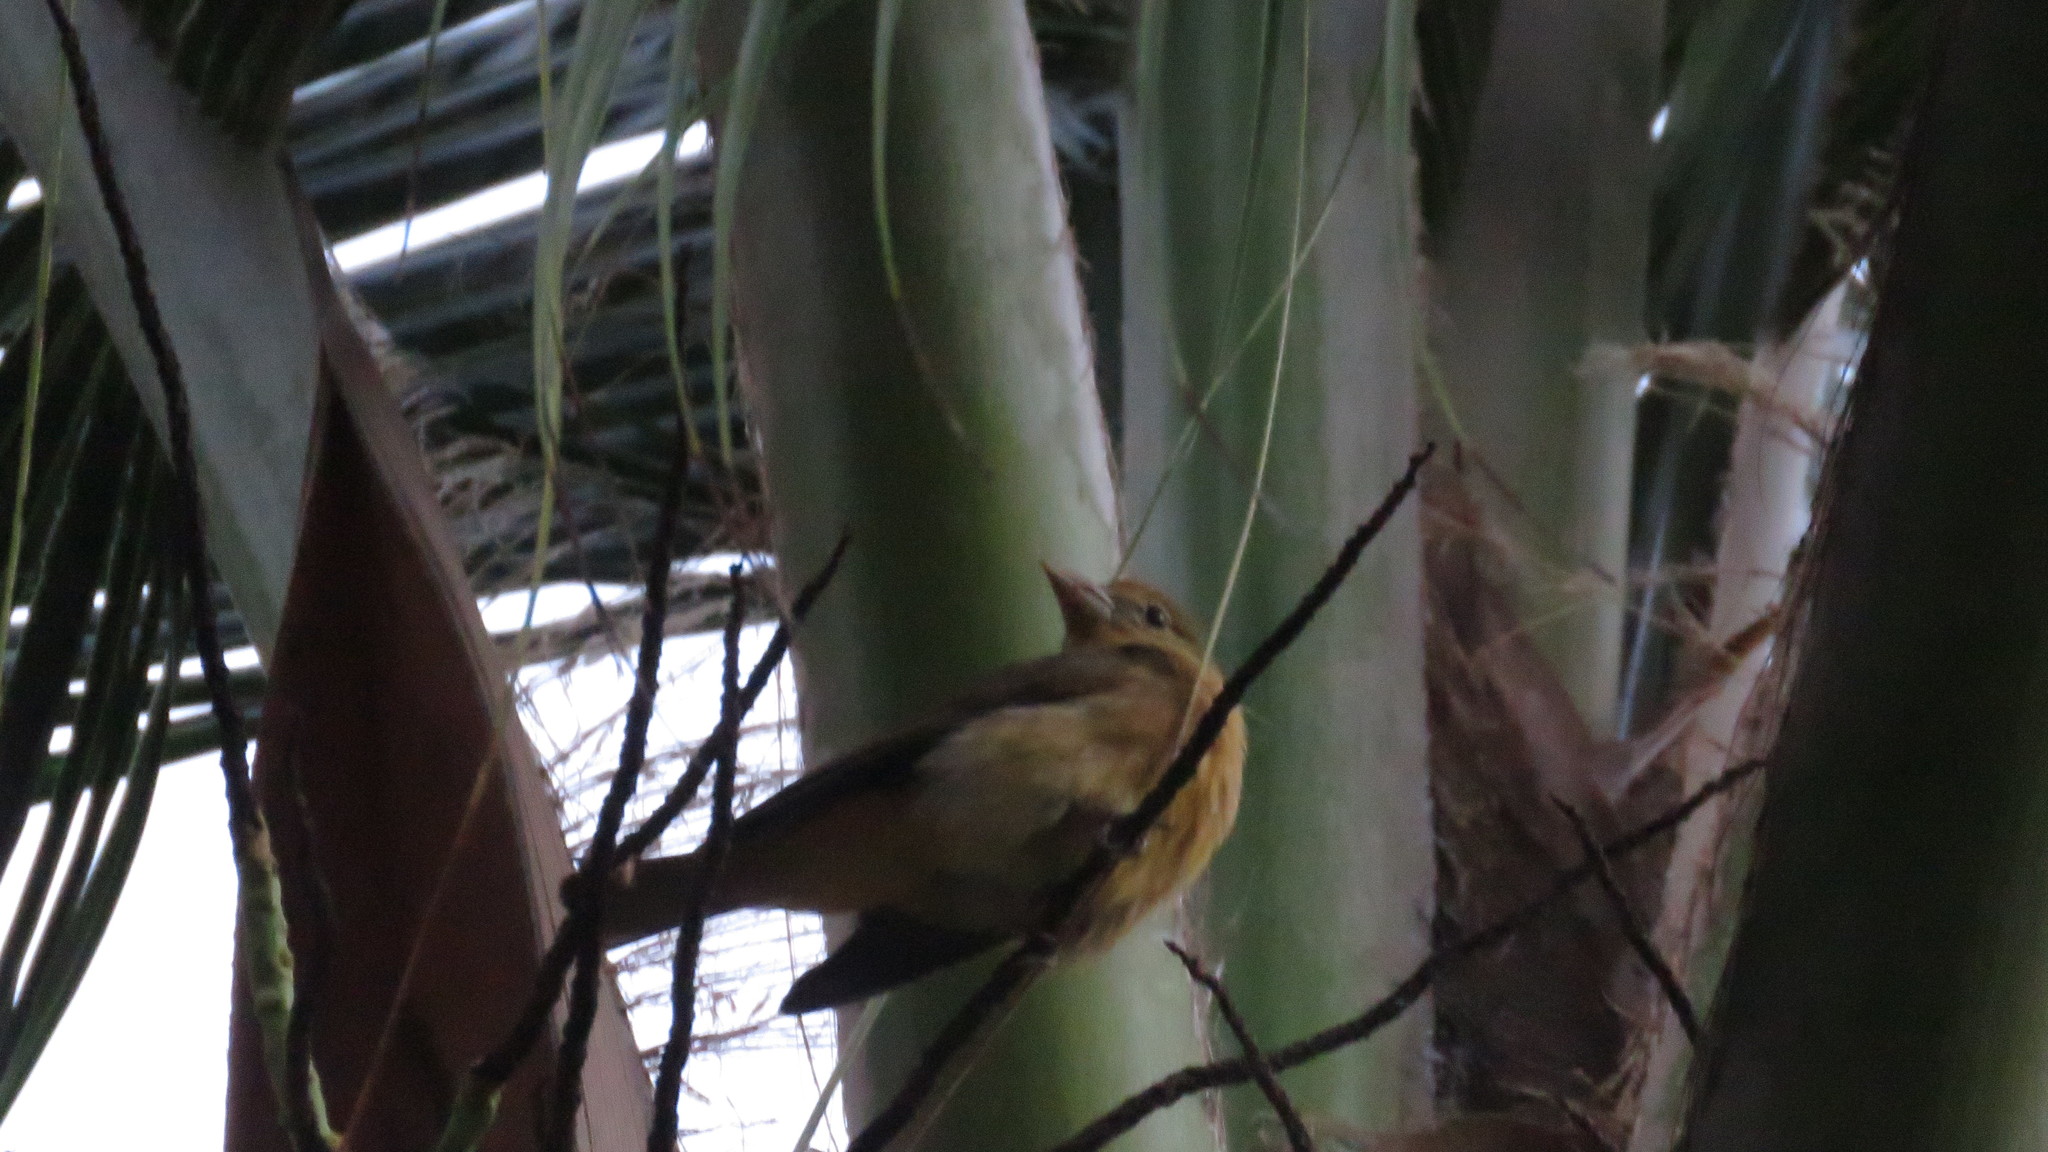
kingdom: Animalia
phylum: Chordata
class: Aves
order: Passeriformes
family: Cardinalidae
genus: Piranga
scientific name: Piranga olivacea
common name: Scarlet tanager
